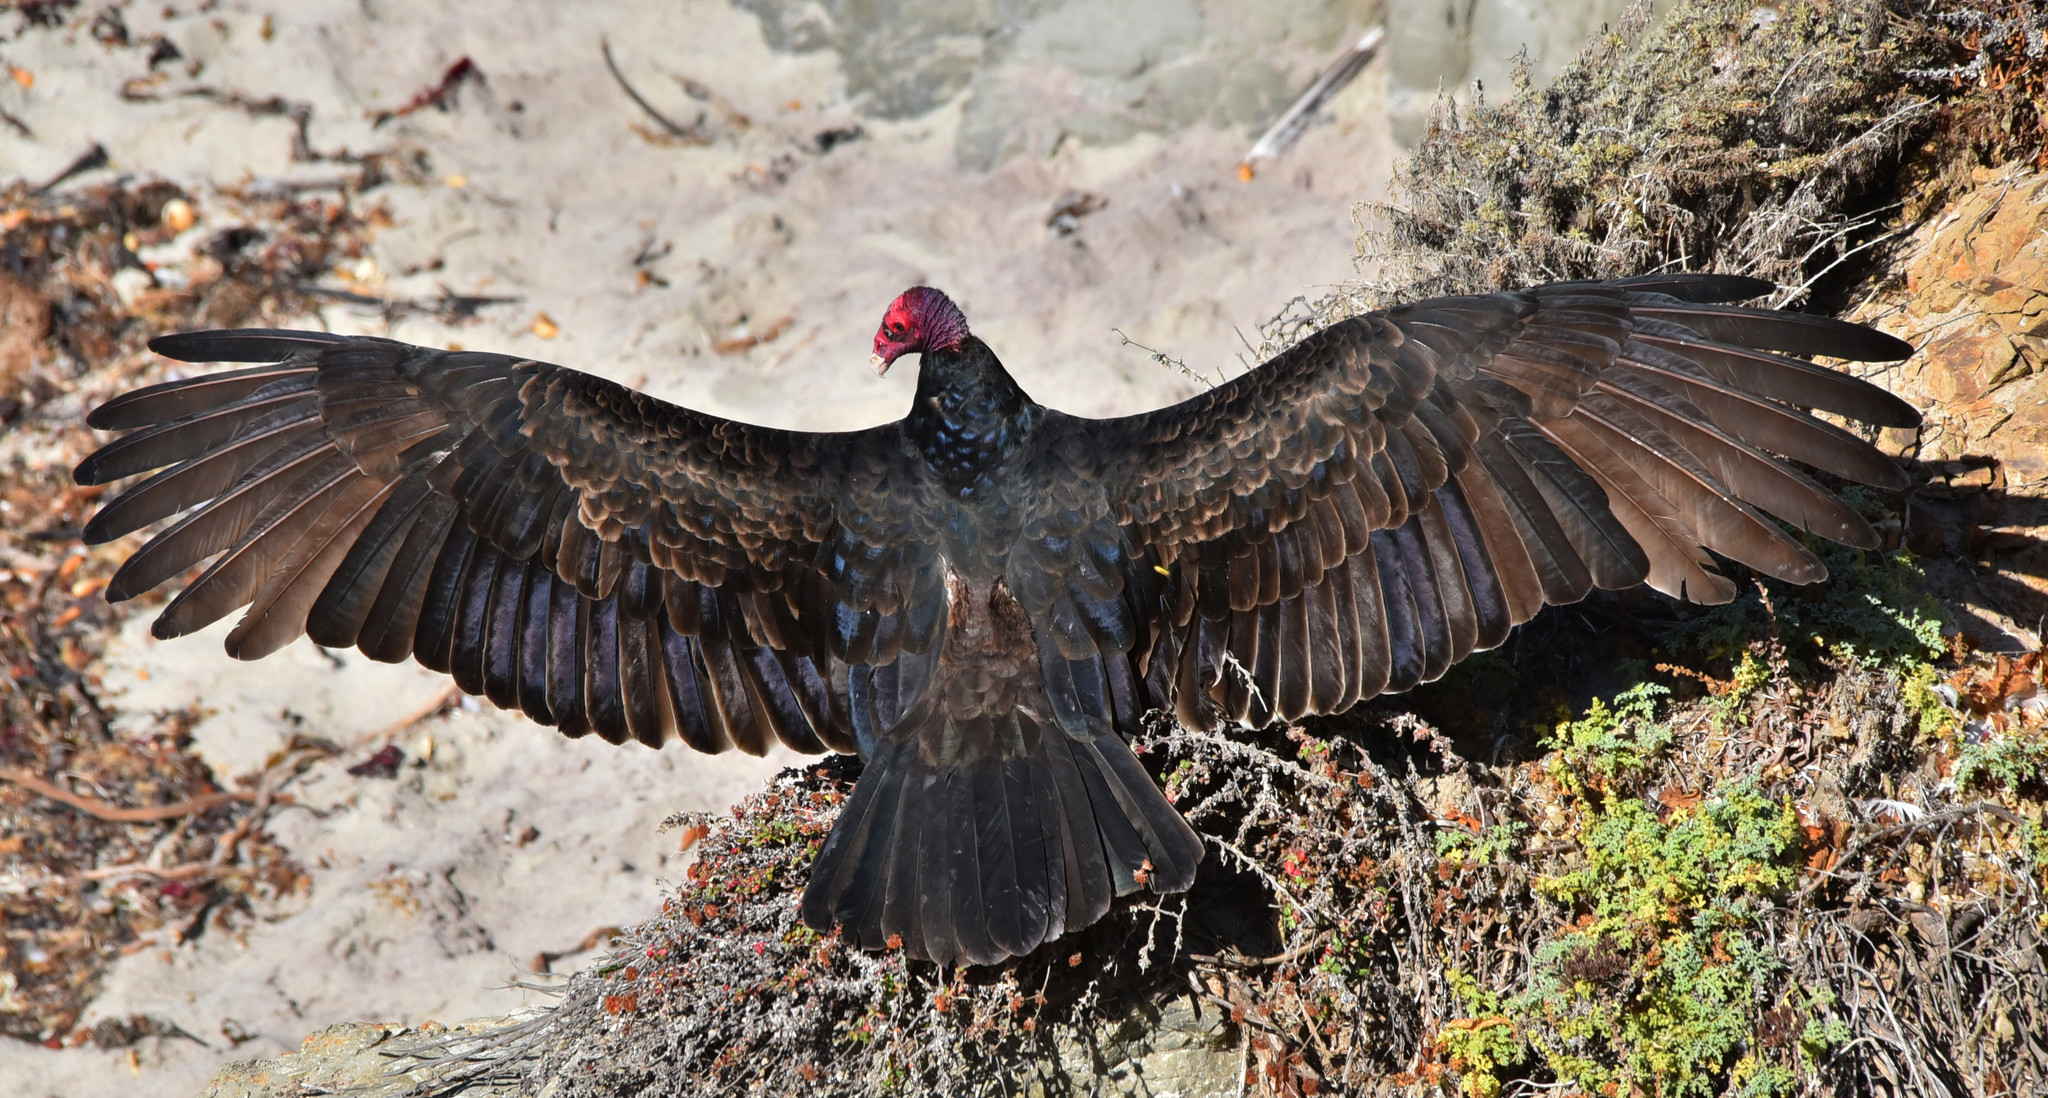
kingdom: Animalia
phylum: Chordata
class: Aves
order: Accipitriformes
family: Cathartidae
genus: Cathartes
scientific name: Cathartes aura
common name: Turkey vulture
